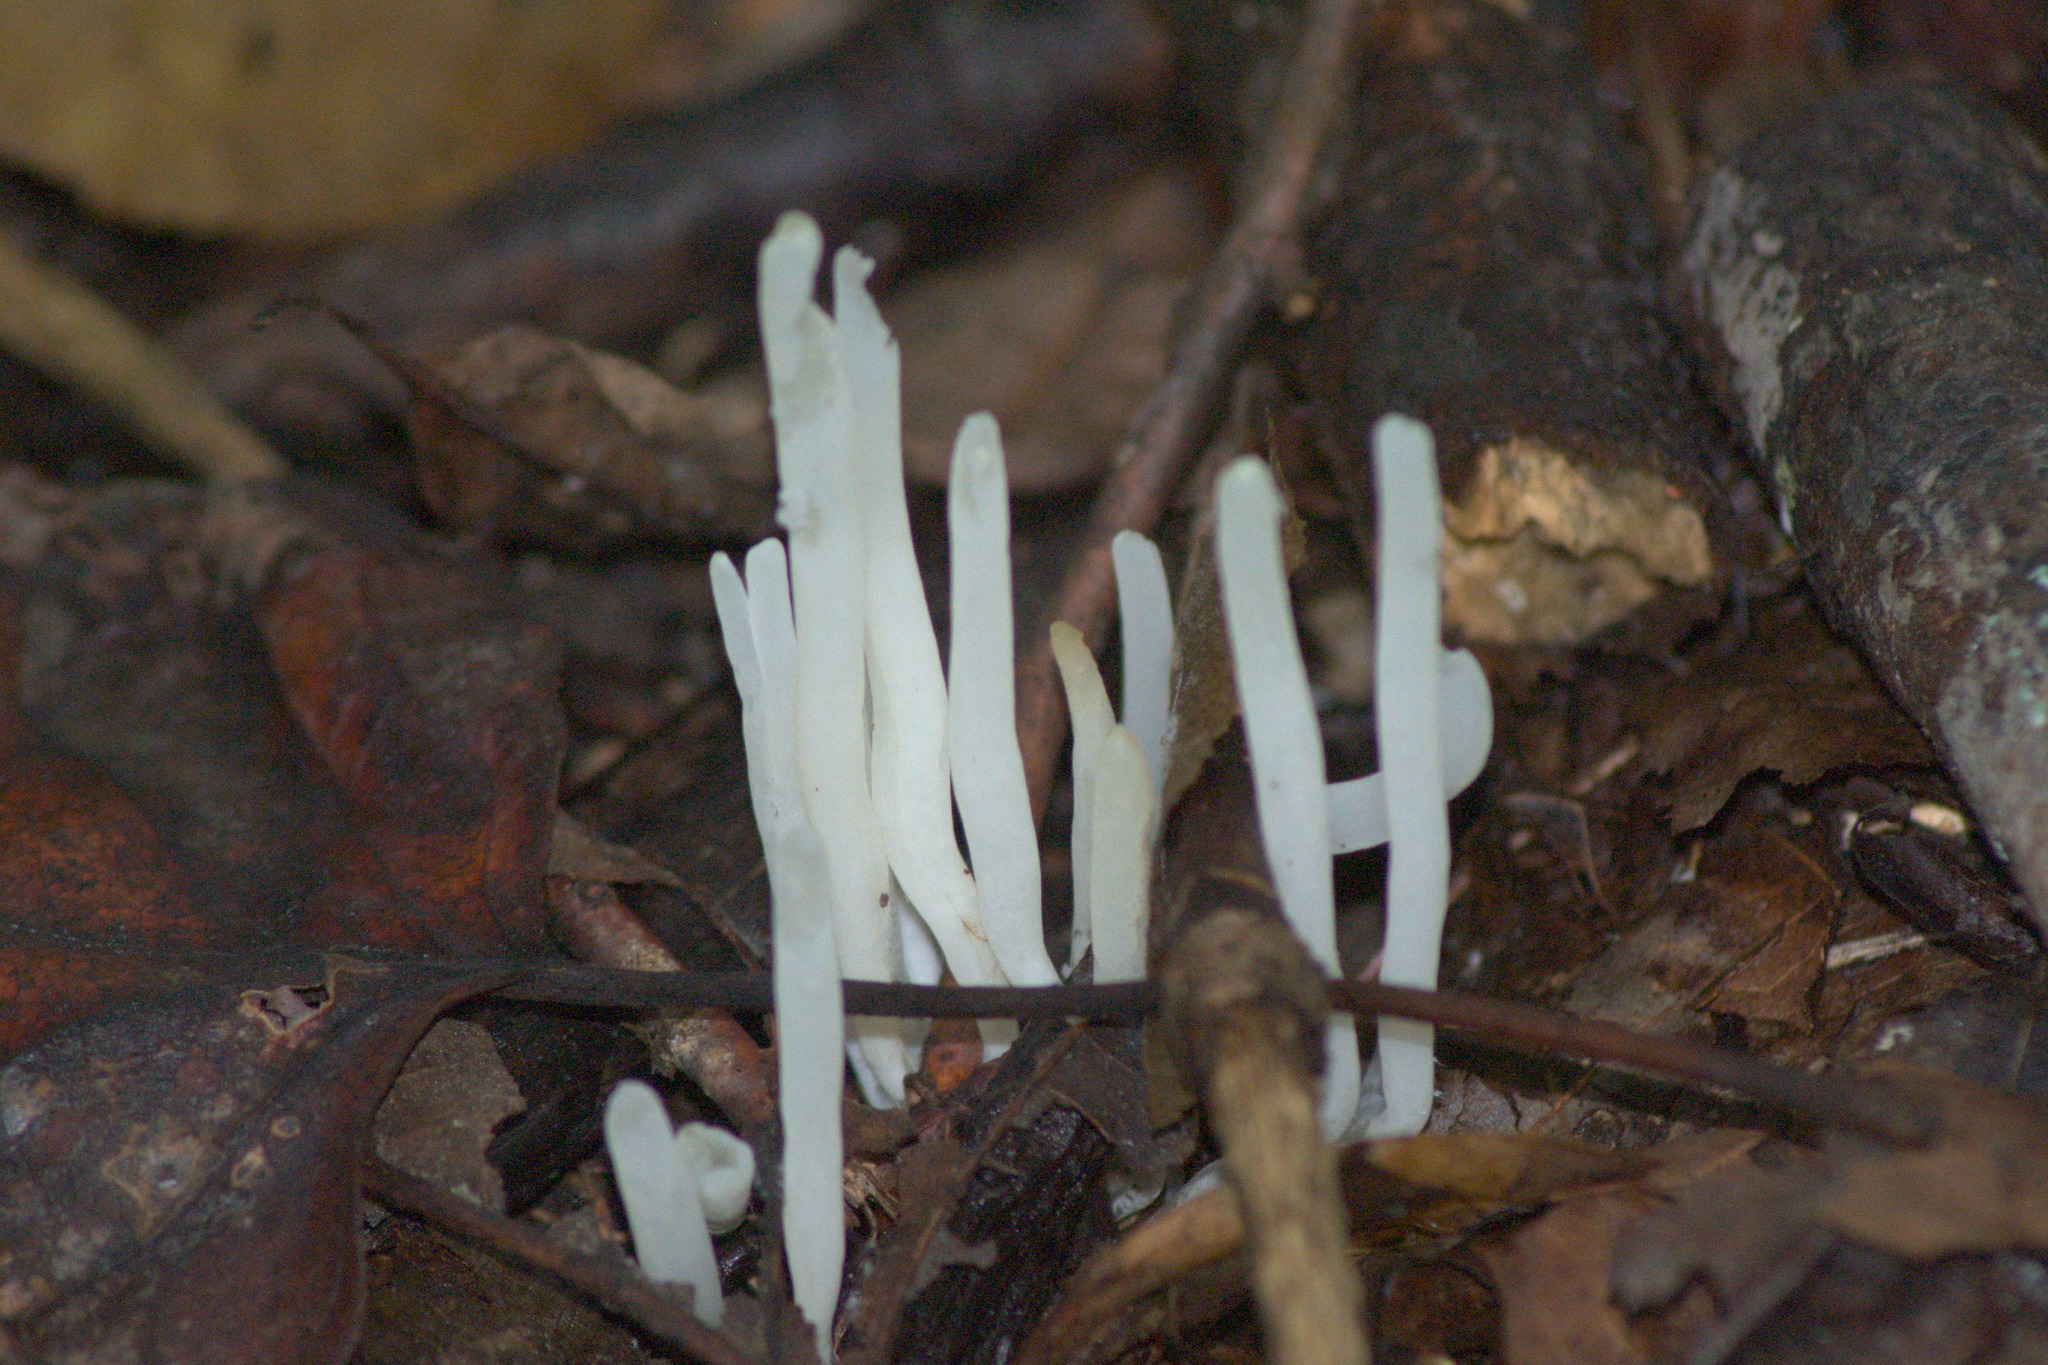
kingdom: Fungi
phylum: Basidiomycota
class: Agaricomycetes
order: Agaricales
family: Clavariaceae
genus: Clavaria
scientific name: Clavaria fragilis
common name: White spindles
